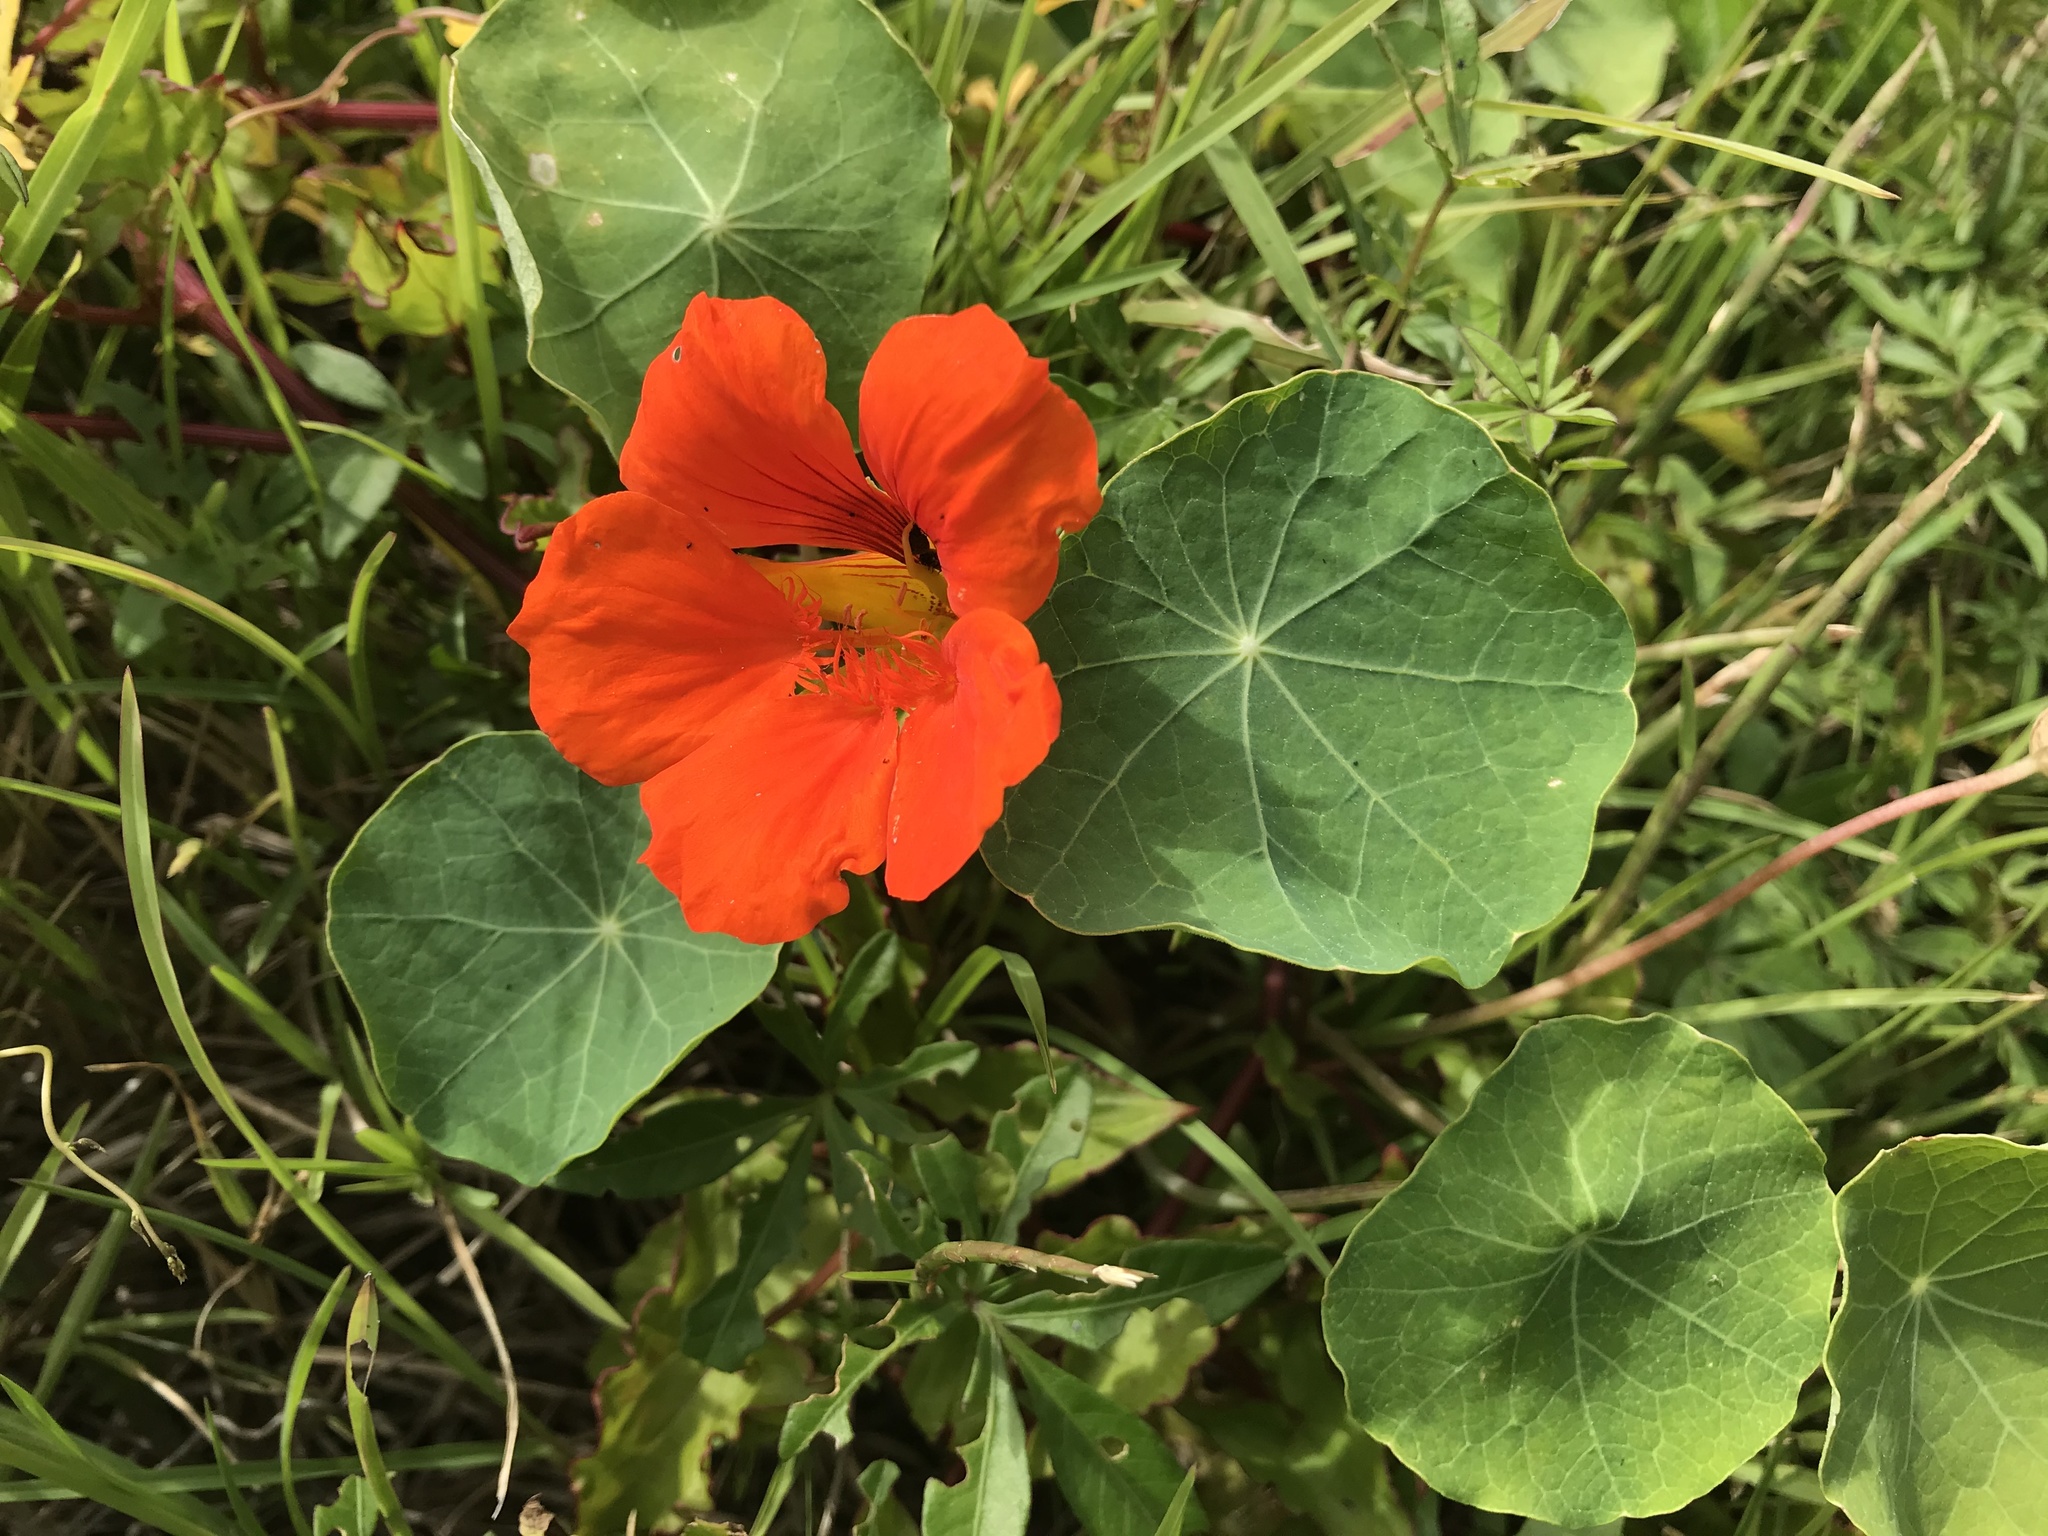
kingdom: Plantae
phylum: Tracheophyta
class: Magnoliopsida
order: Brassicales
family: Tropaeolaceae
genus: Tropaeolum
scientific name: Tropaeolum majus
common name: Nasturtium
